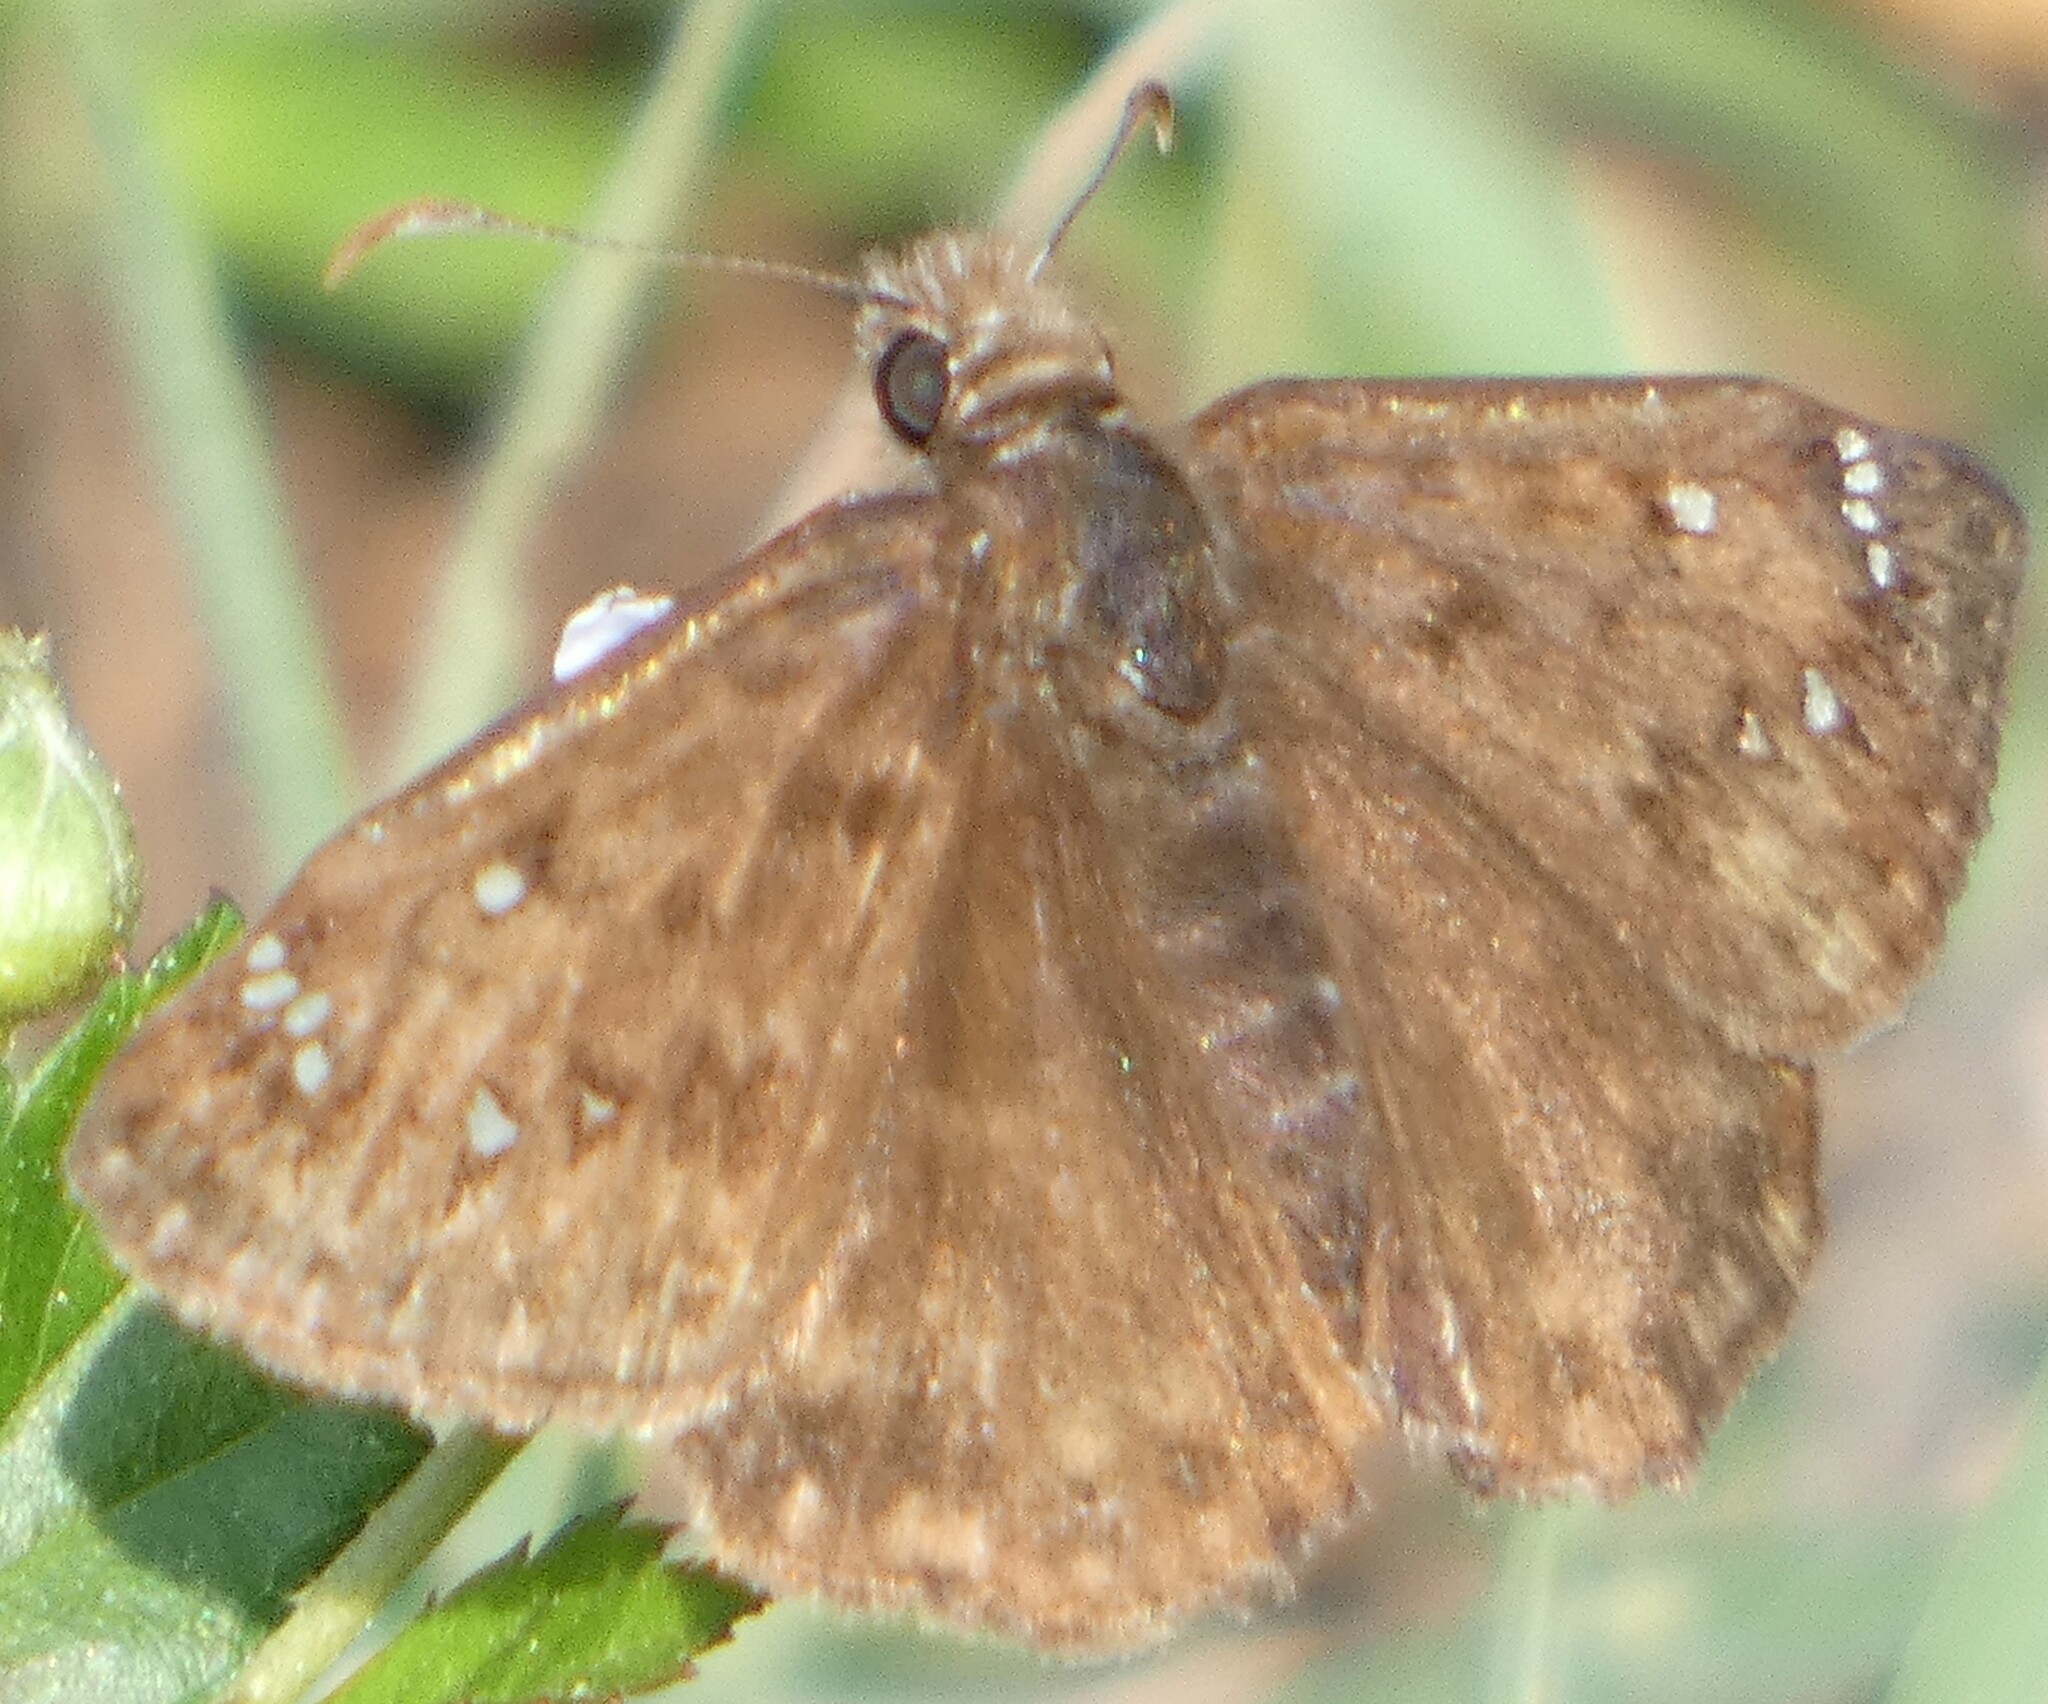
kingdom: Animalia
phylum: Arthropoda
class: Insecta
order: Lepidoptera
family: Hesperiidae
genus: Erynnis
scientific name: Erynnis horatius
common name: Horace's duskywing
